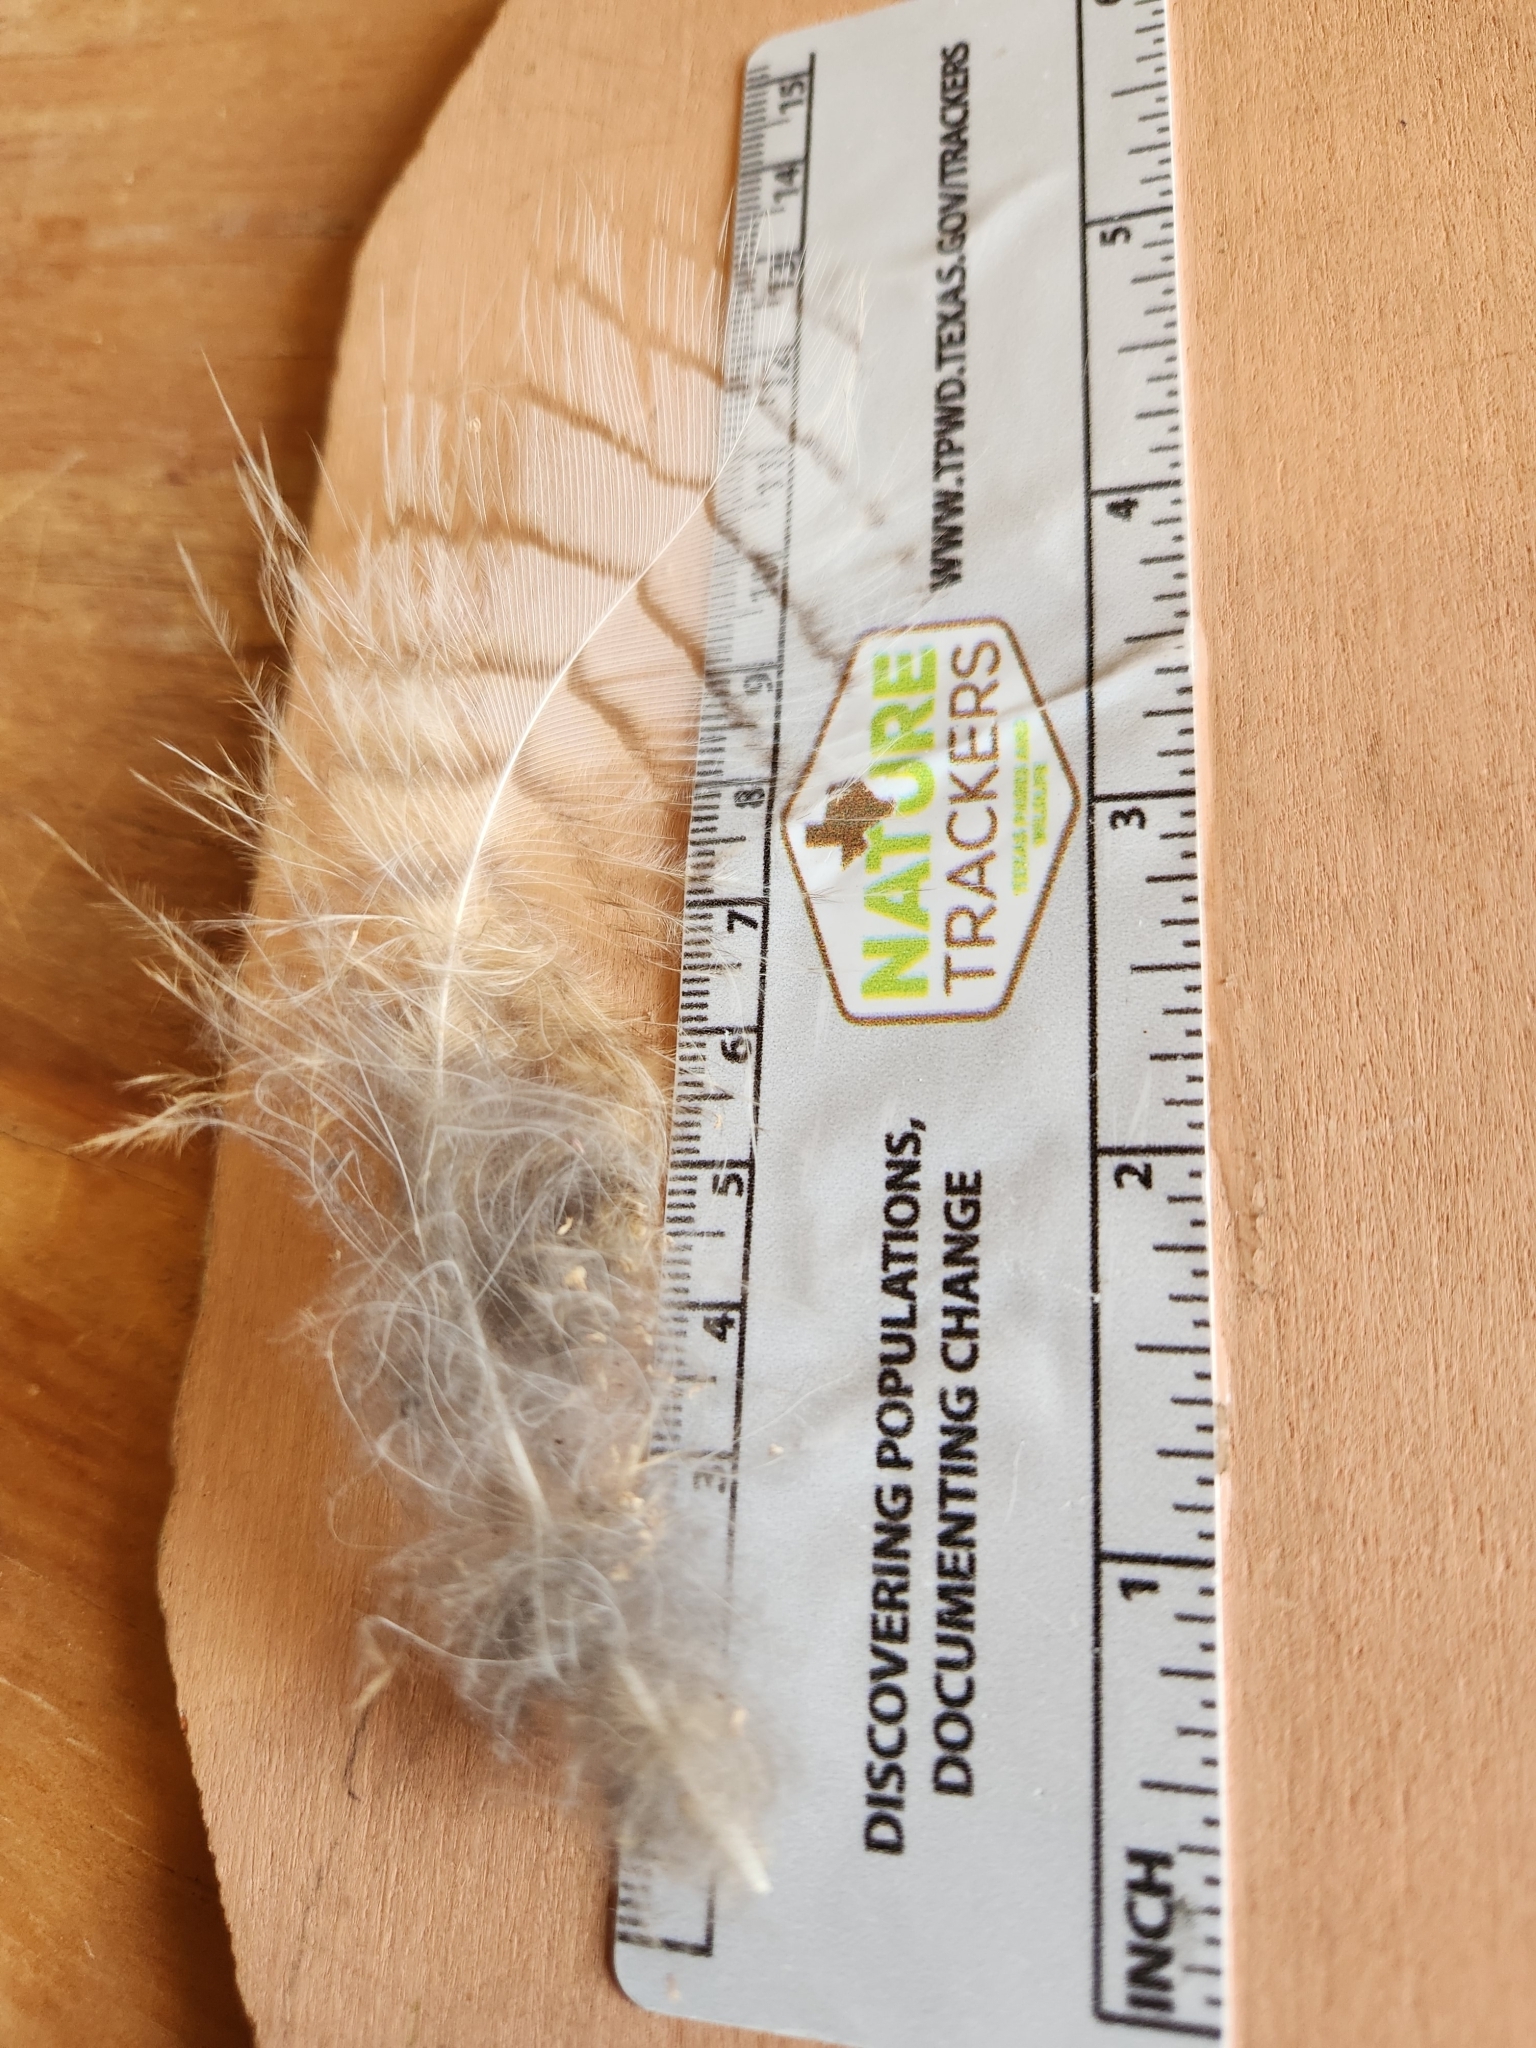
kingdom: Animalia
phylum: Chordata
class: Aves
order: Strigiformes
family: Strigidae
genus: Bubo
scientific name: Bubo virginianus
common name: Great horned owl
